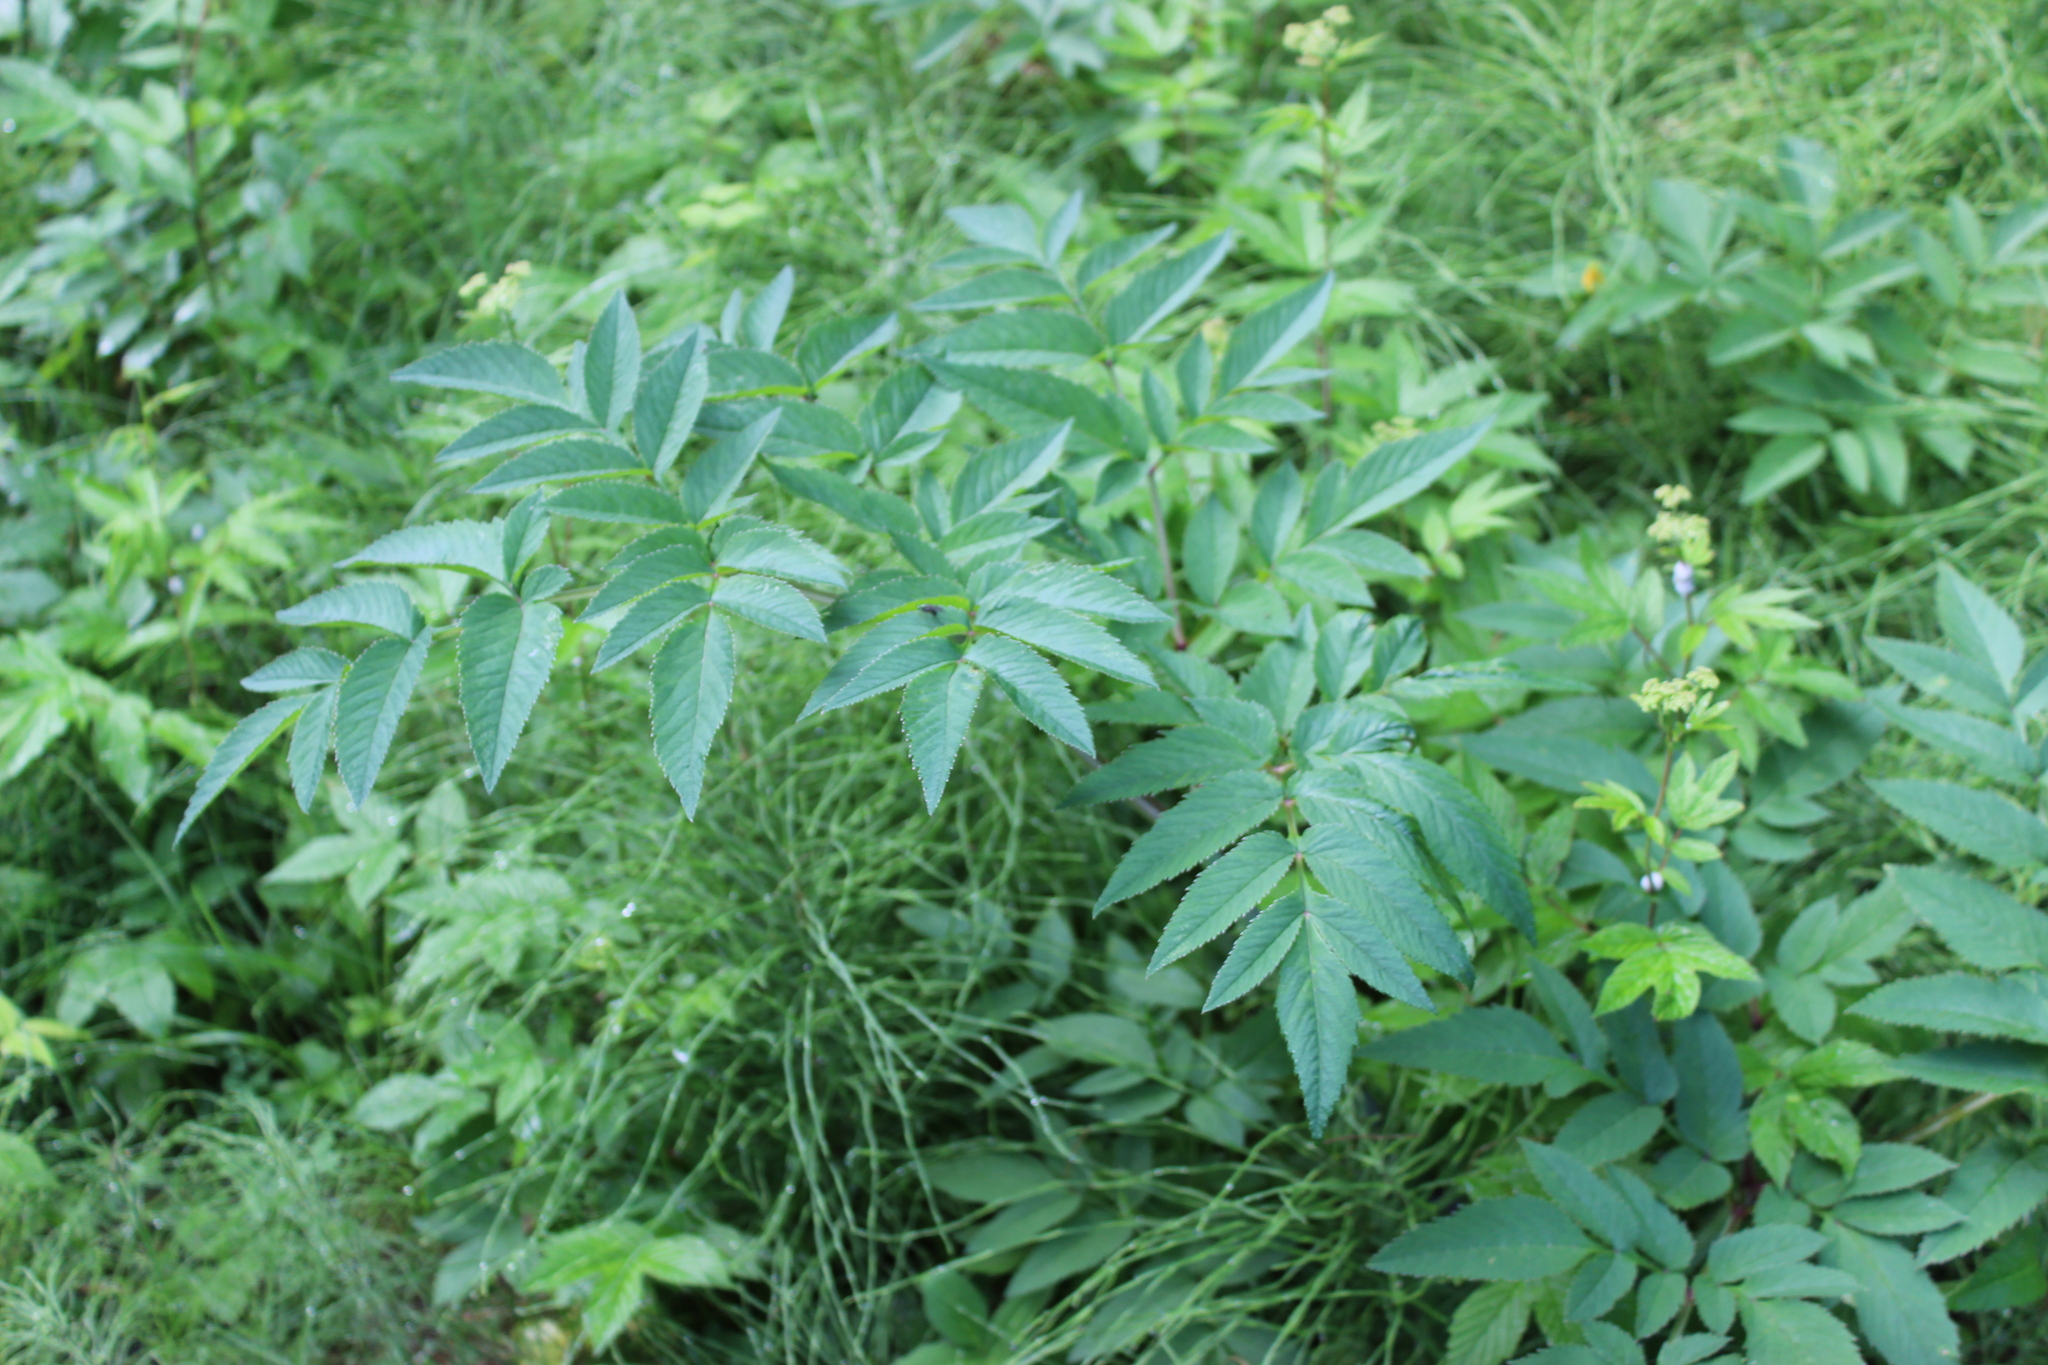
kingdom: Plantae
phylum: Tracheophyta
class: Magnoliopsida
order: Apiales
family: Apiaceae
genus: Angelica
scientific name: Angelica sylvestris
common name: Wild angelica
